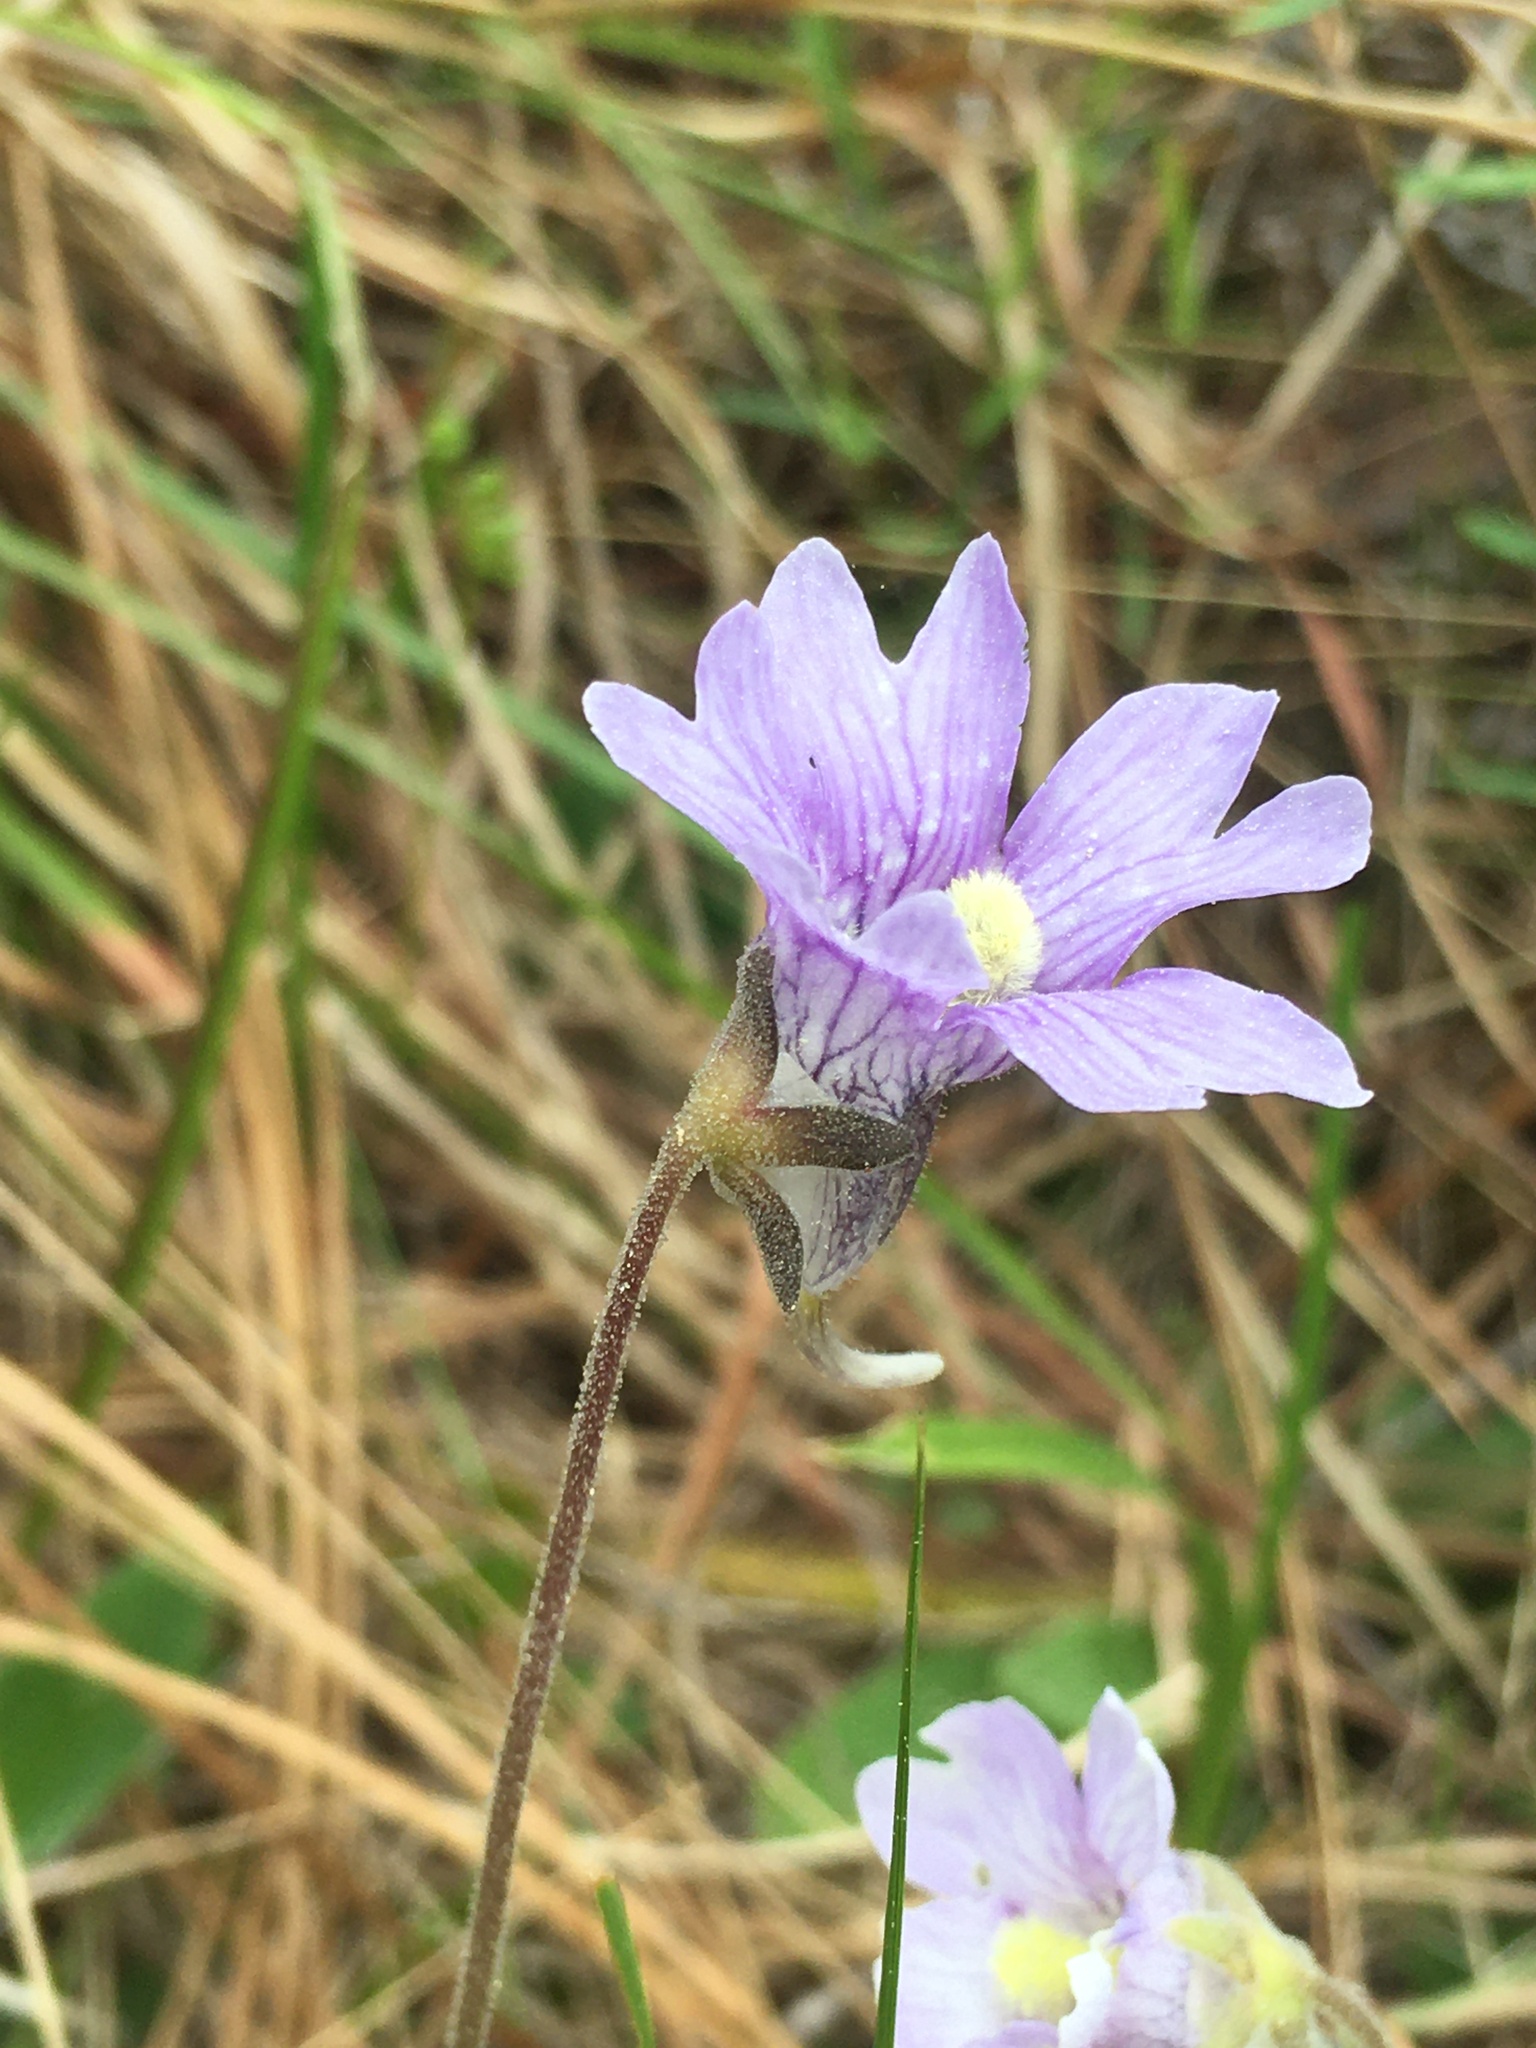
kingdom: Plantae
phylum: Tracheophyta
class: Magnoliopsida
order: Lamiales
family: Lentibulariaceae
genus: Pinguicula
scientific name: Pinguicula caerulea
